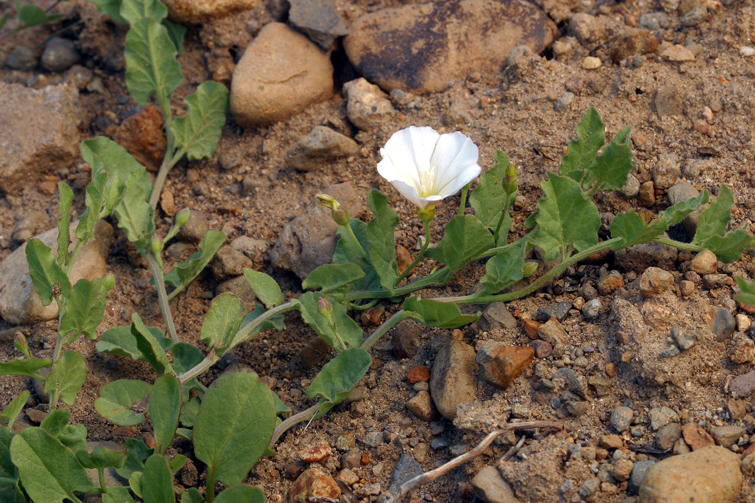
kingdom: Plantae
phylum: Tracheophyta
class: Magnoliopsida
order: Solanales
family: Convolvulaceae
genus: Convolvulus
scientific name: Convolvulus arvensis
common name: Field bindweed
